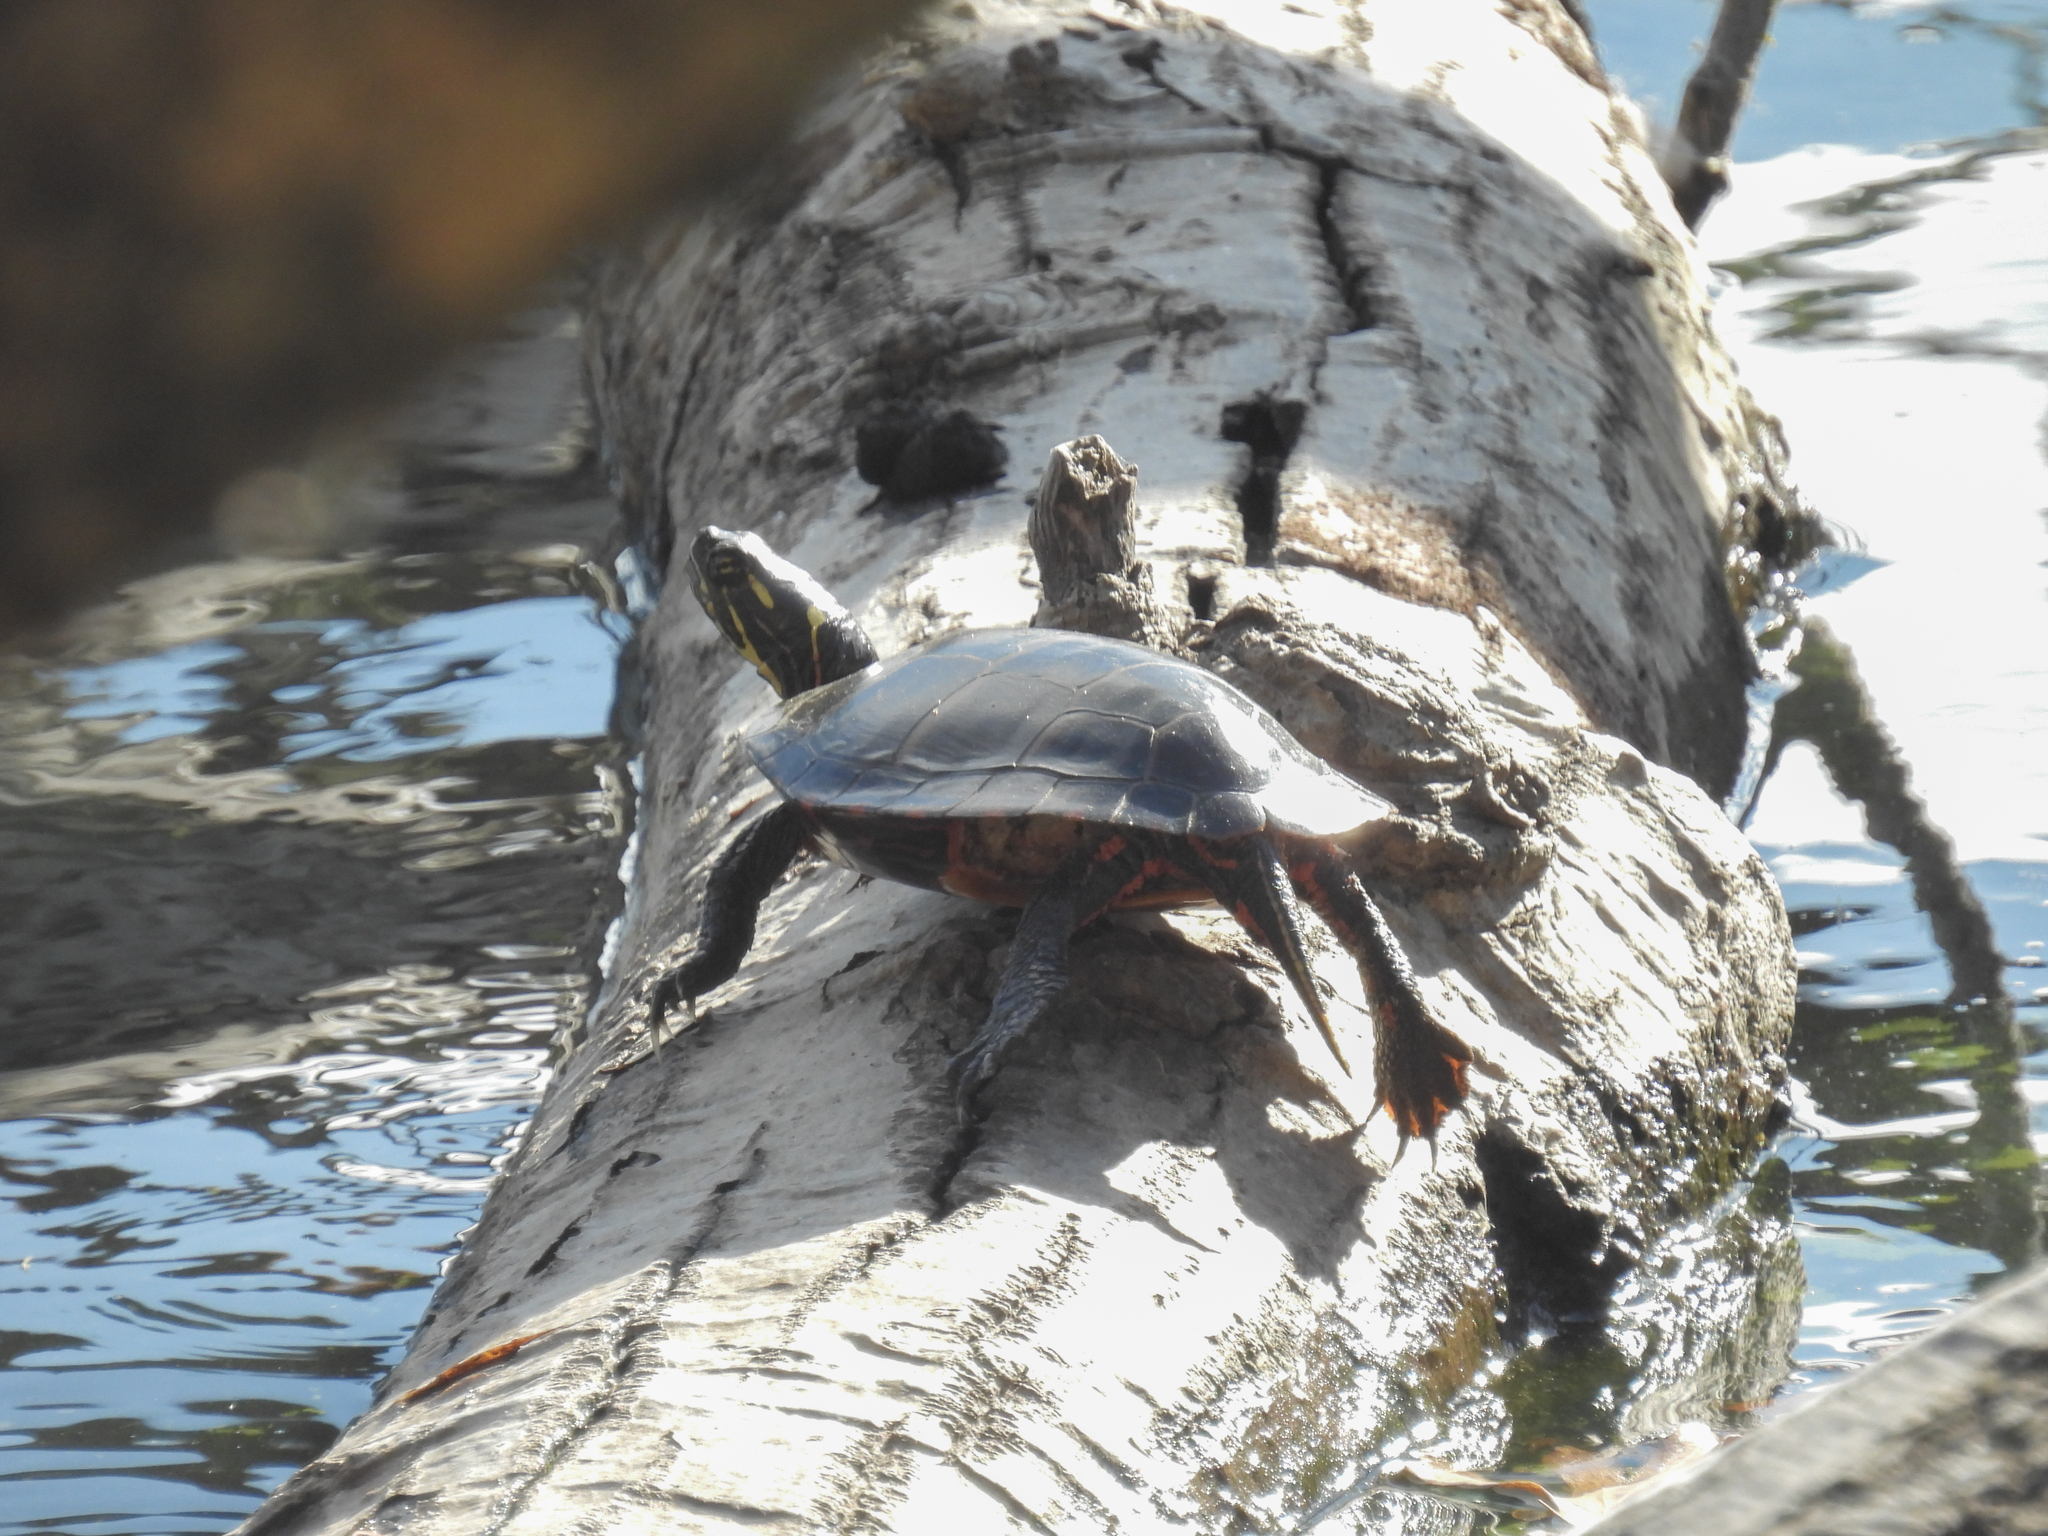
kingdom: Animalia
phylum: Chordata
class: Testudines
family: Emydidae
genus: Chrysemys
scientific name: Chrysemys picta
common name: Painted turtle
